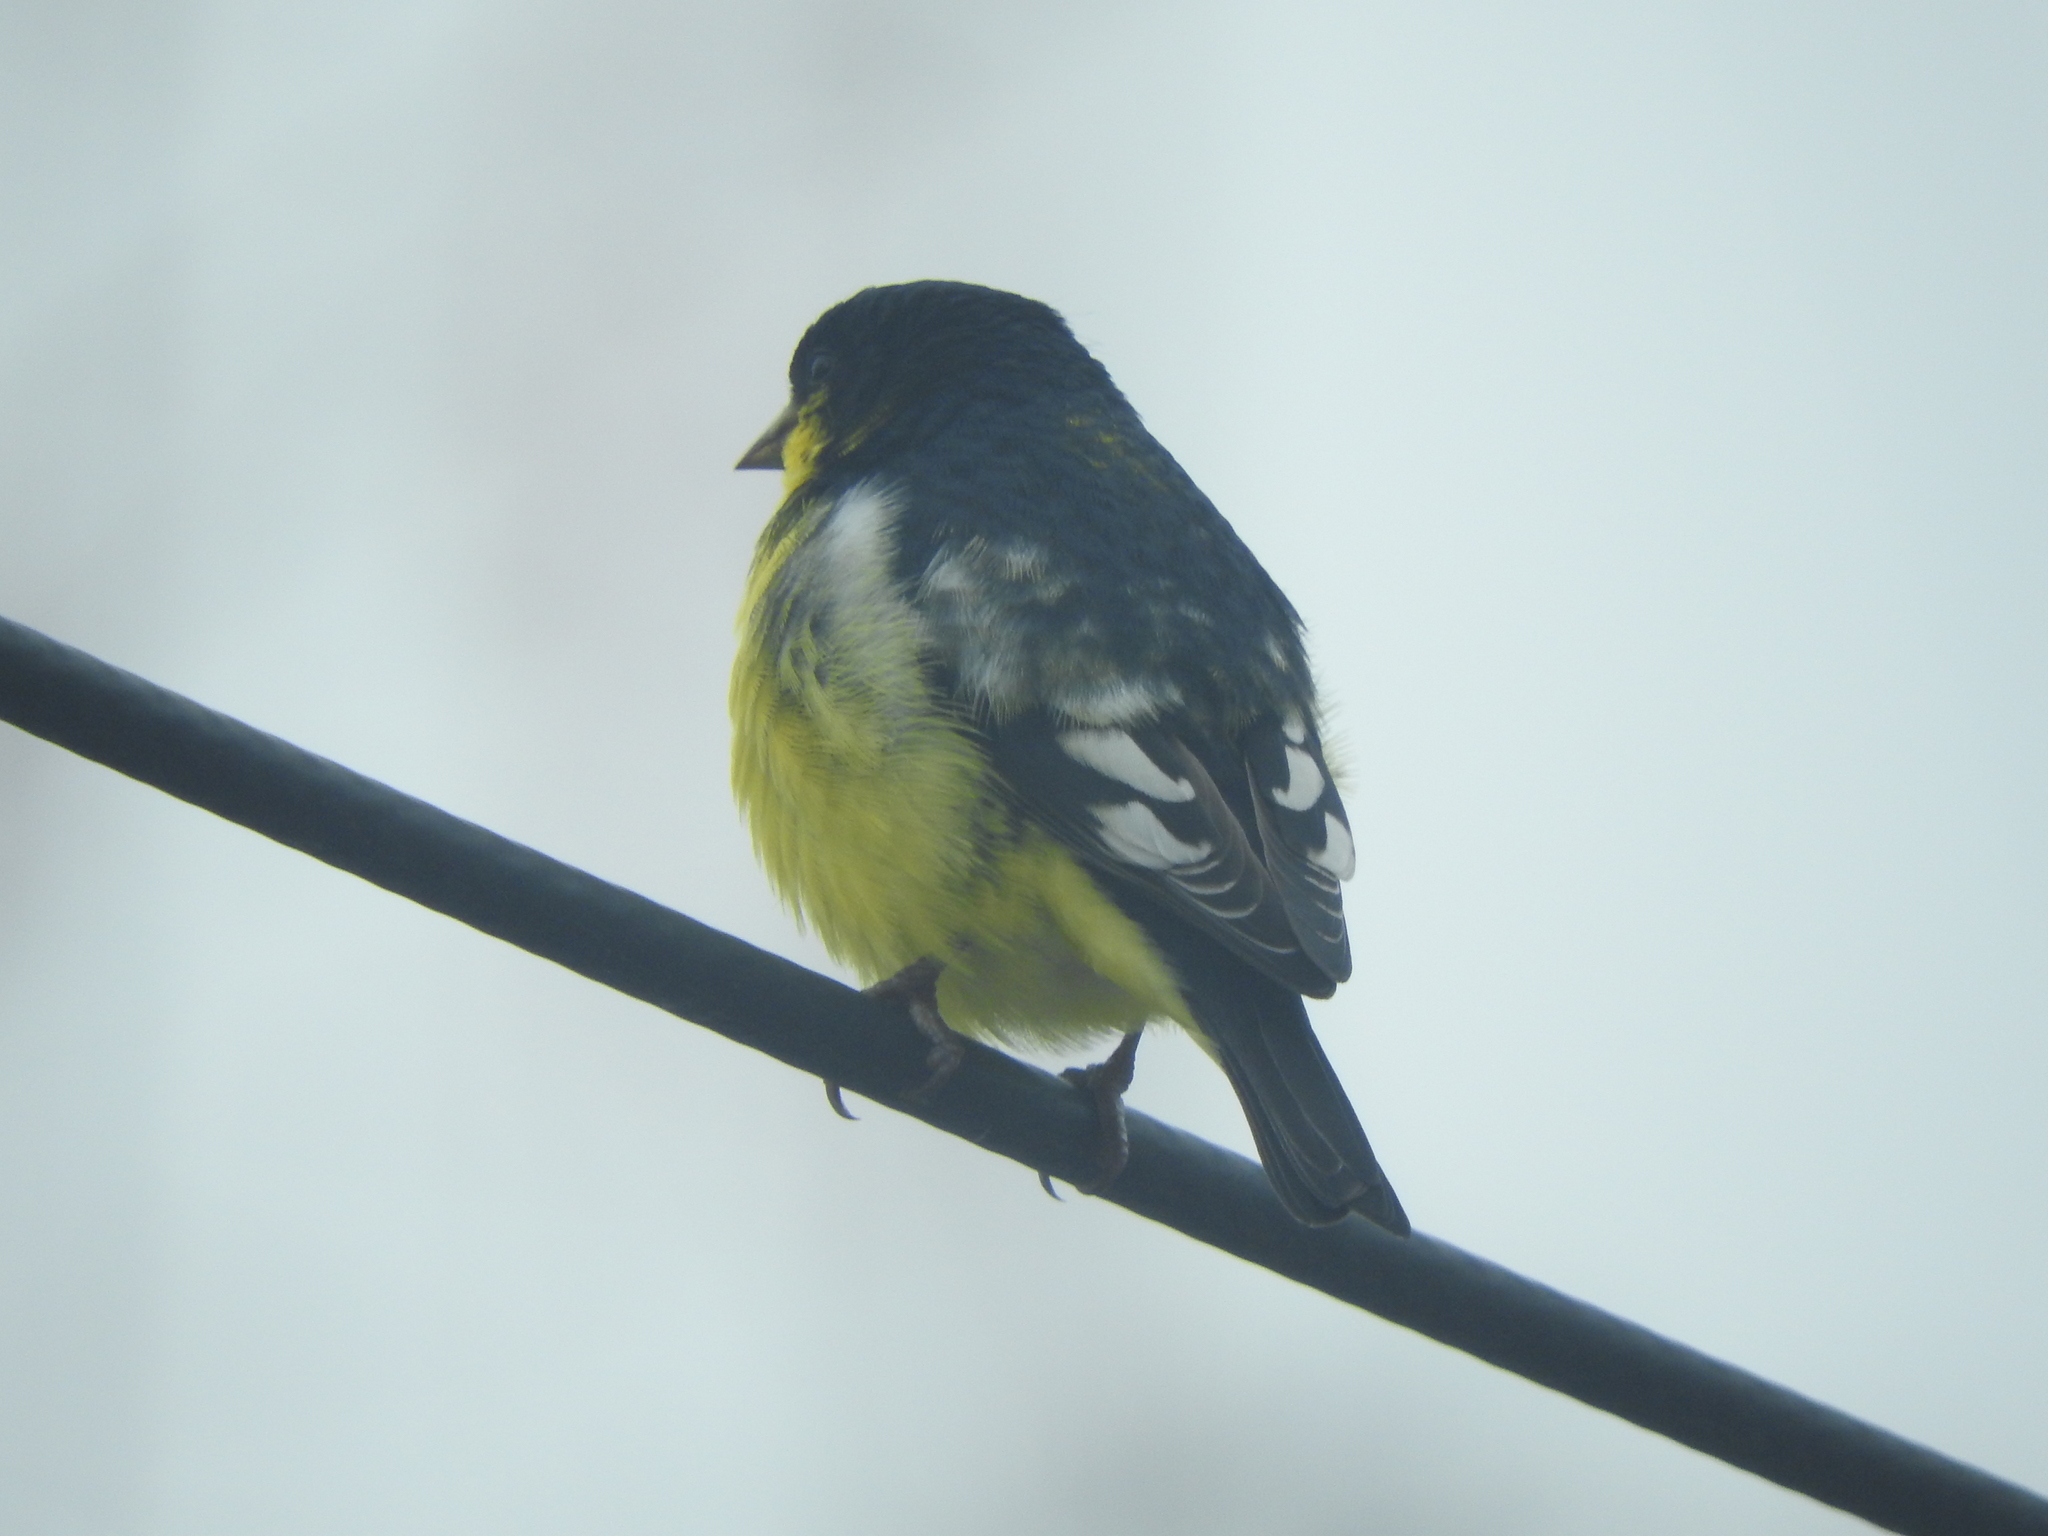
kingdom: Animalia
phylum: Chordata
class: Aves
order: Passeriformes
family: Fringillidae
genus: Spinus
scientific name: Spinus psaltria
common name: Lesser goldfinch
